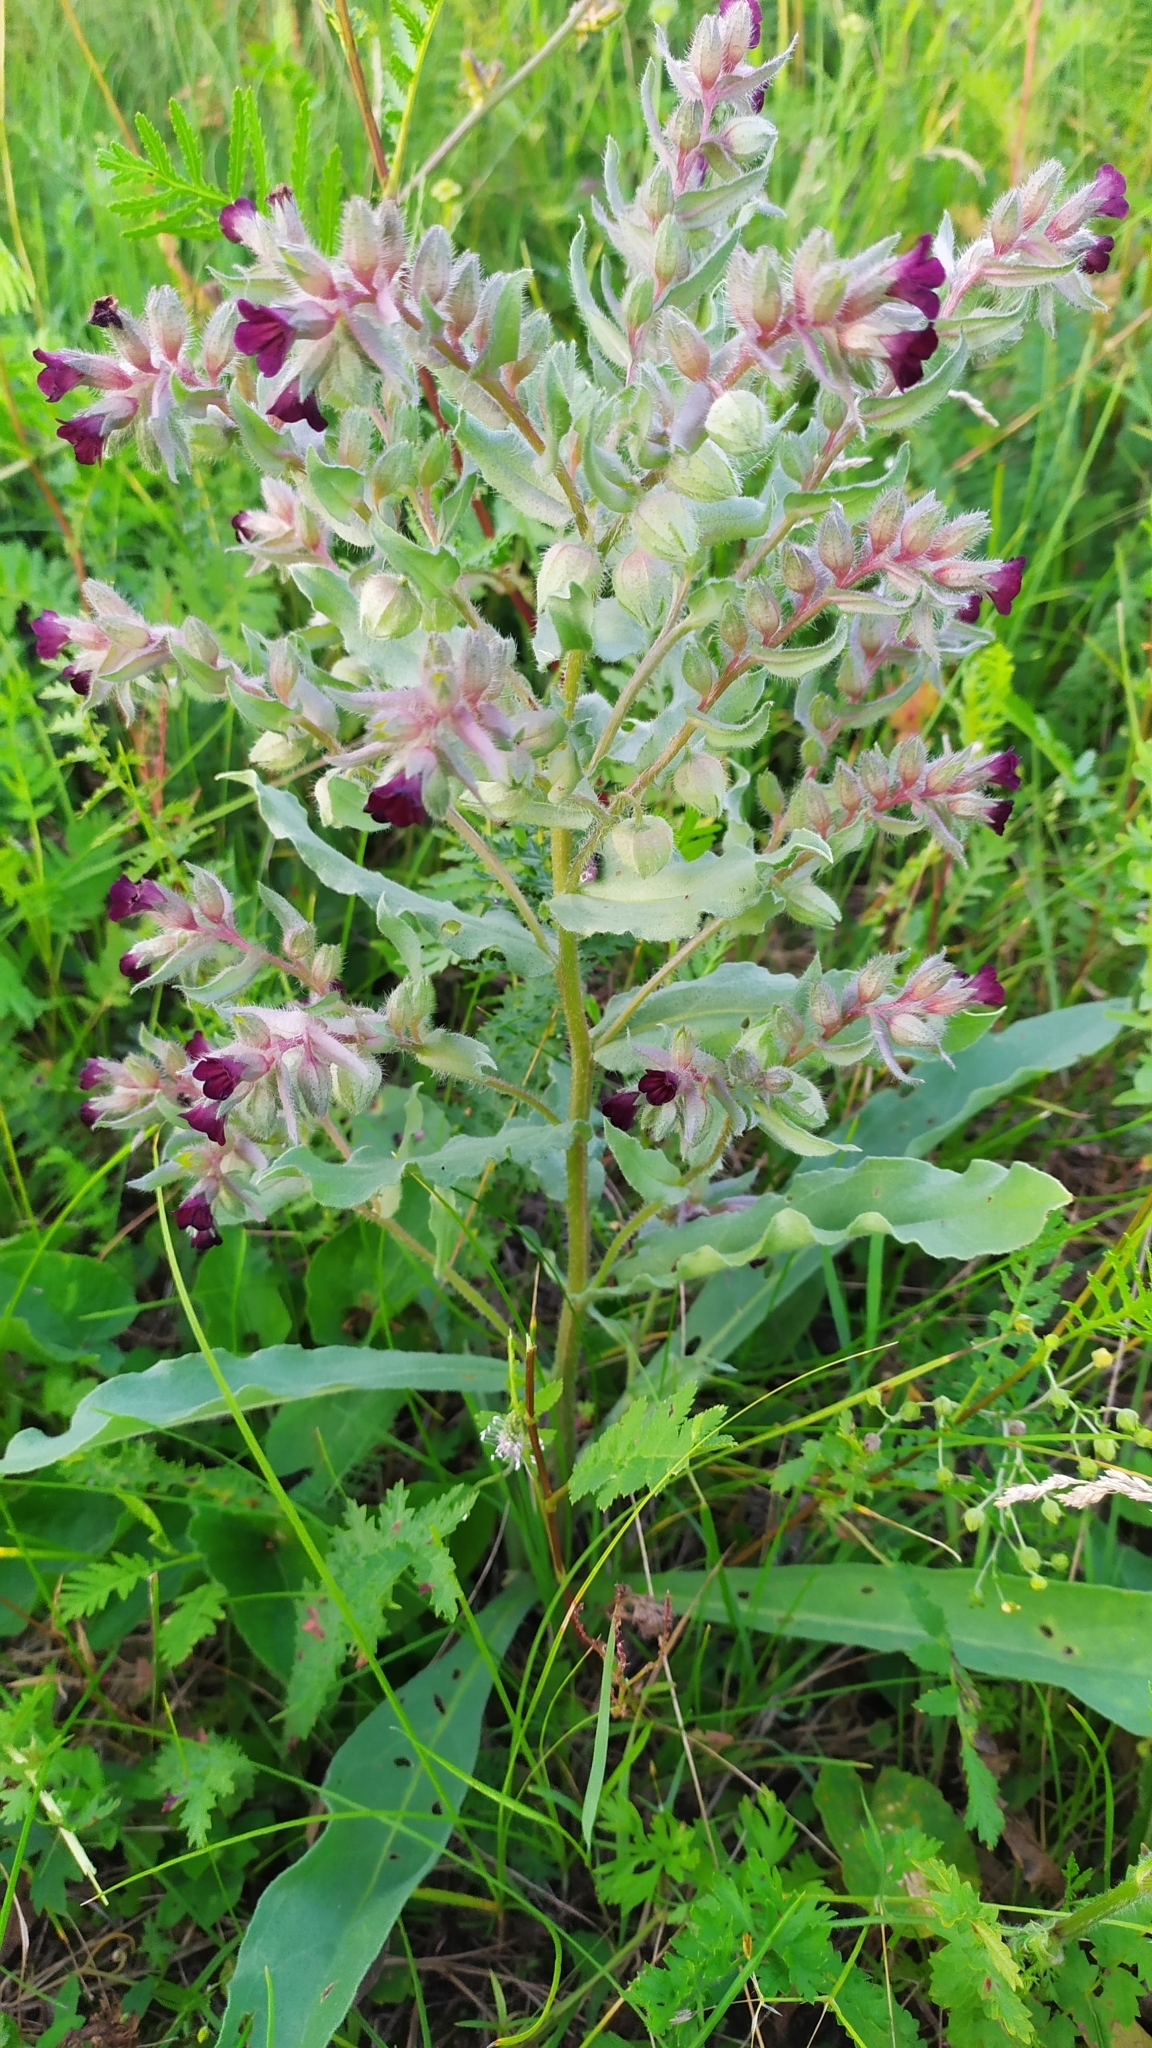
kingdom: Plantae
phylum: Tracheophyta
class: Magnoliopsida
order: Boraginales
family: Boraginaceae
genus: Nonea
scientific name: Nonea pulla
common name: Brown nonea
